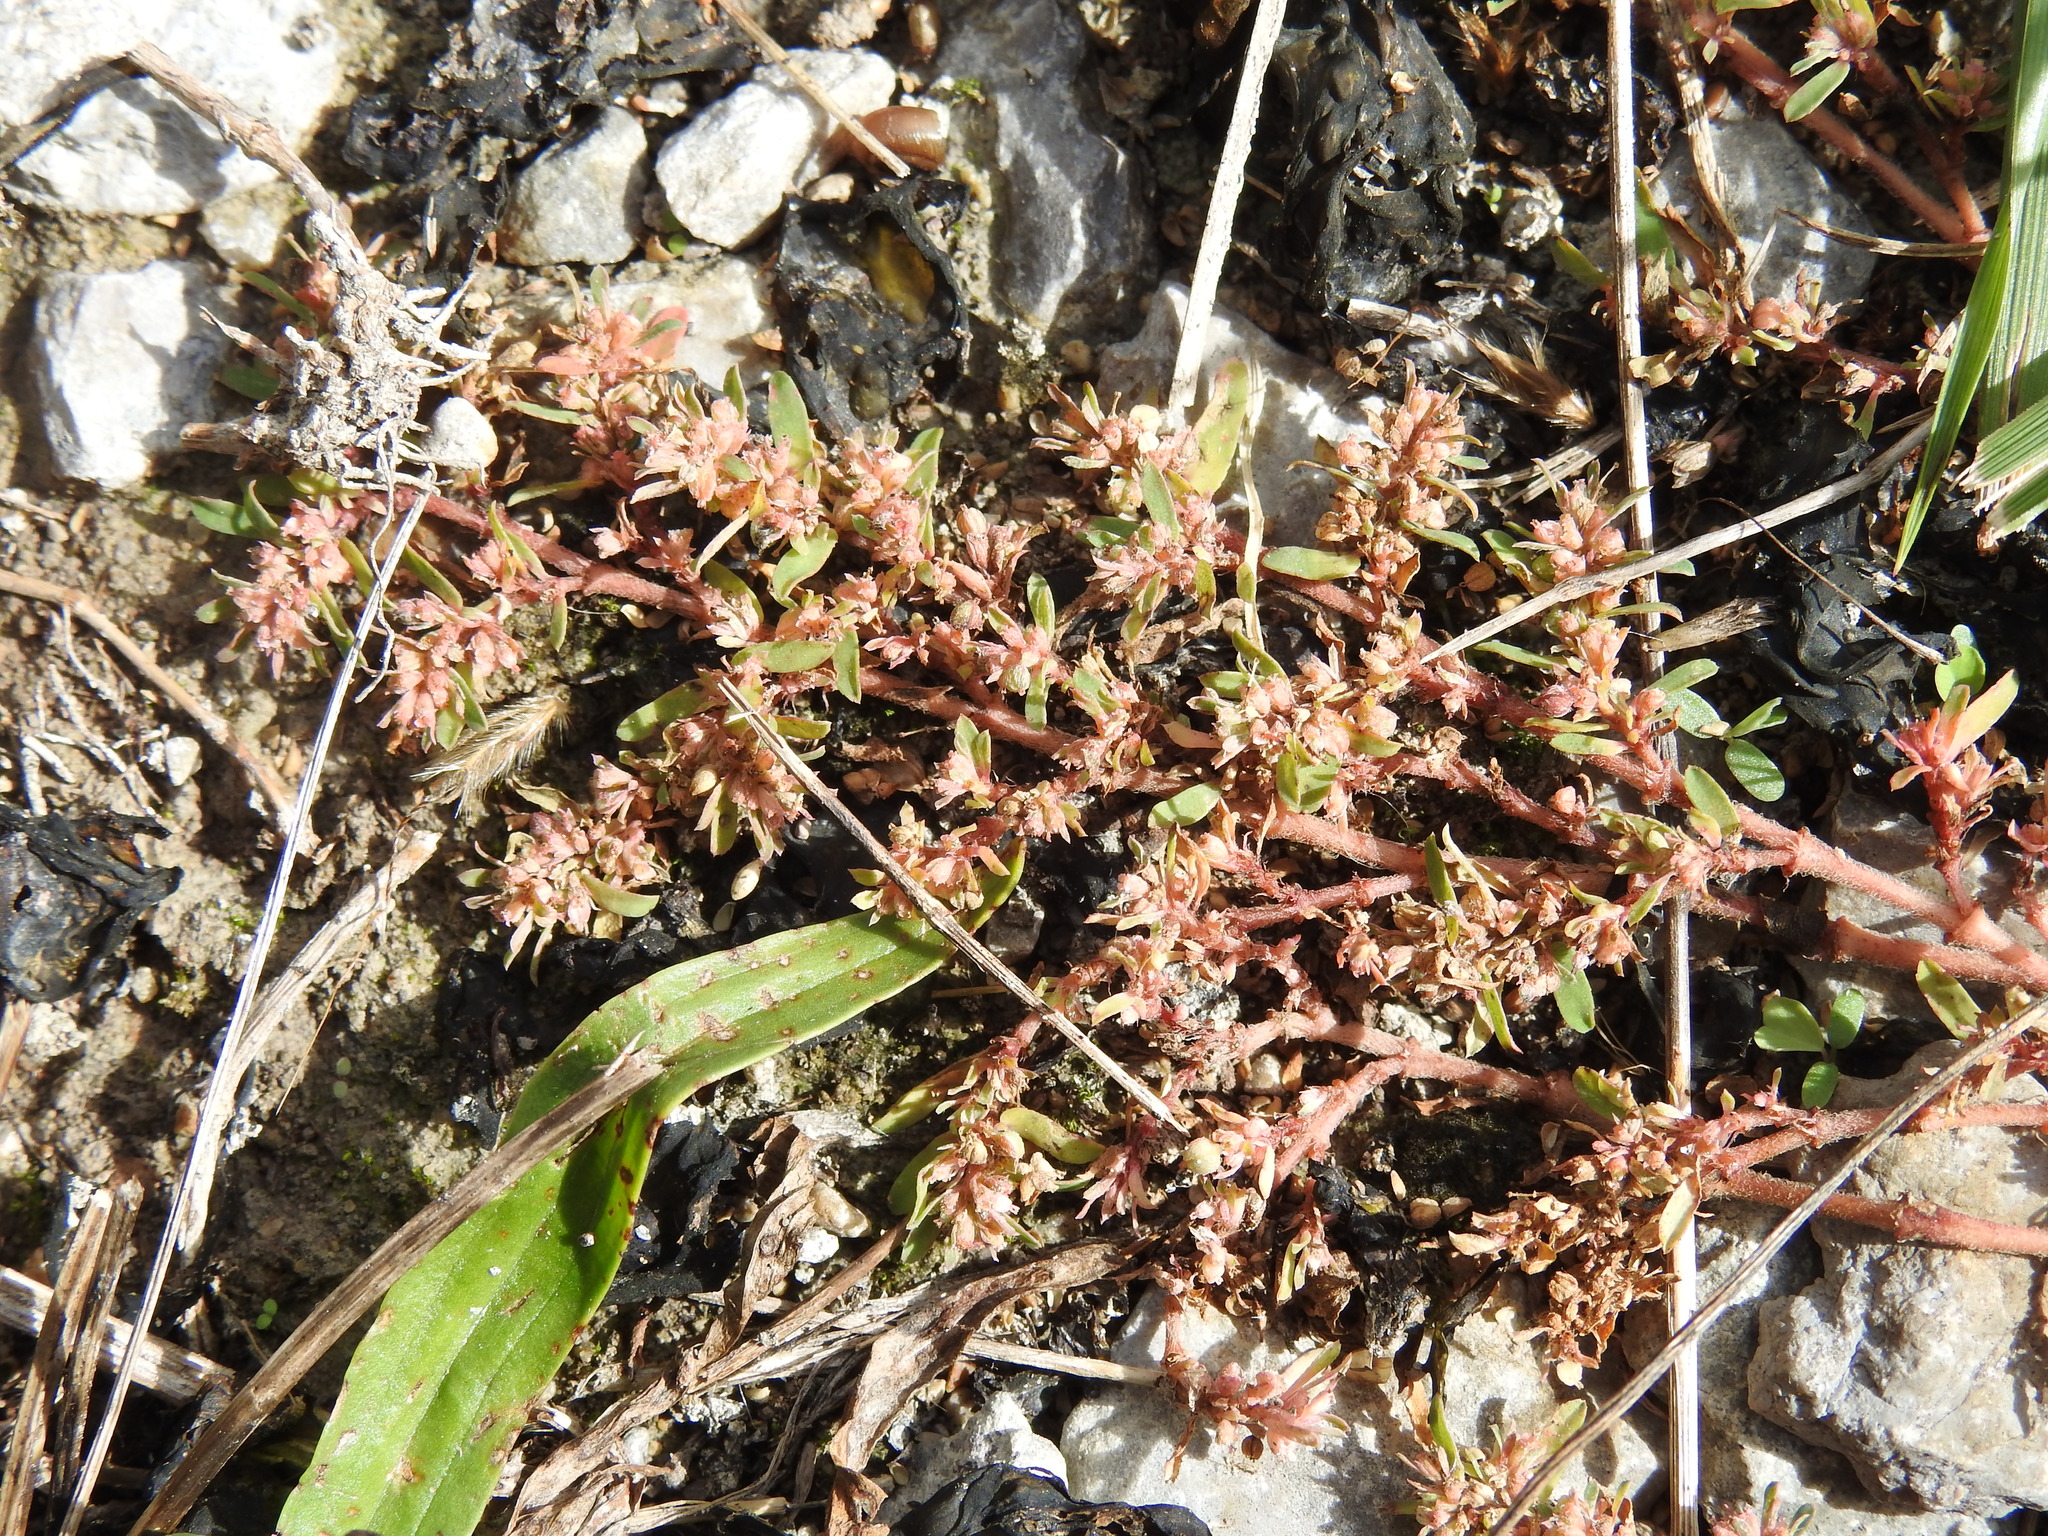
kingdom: Plantae
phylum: Tracheophyta
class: Magnoliopsida
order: Malpighiales
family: Euphorbiaceae
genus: Euphorbia
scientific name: Euphorbia maculata
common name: Spotted spurge
